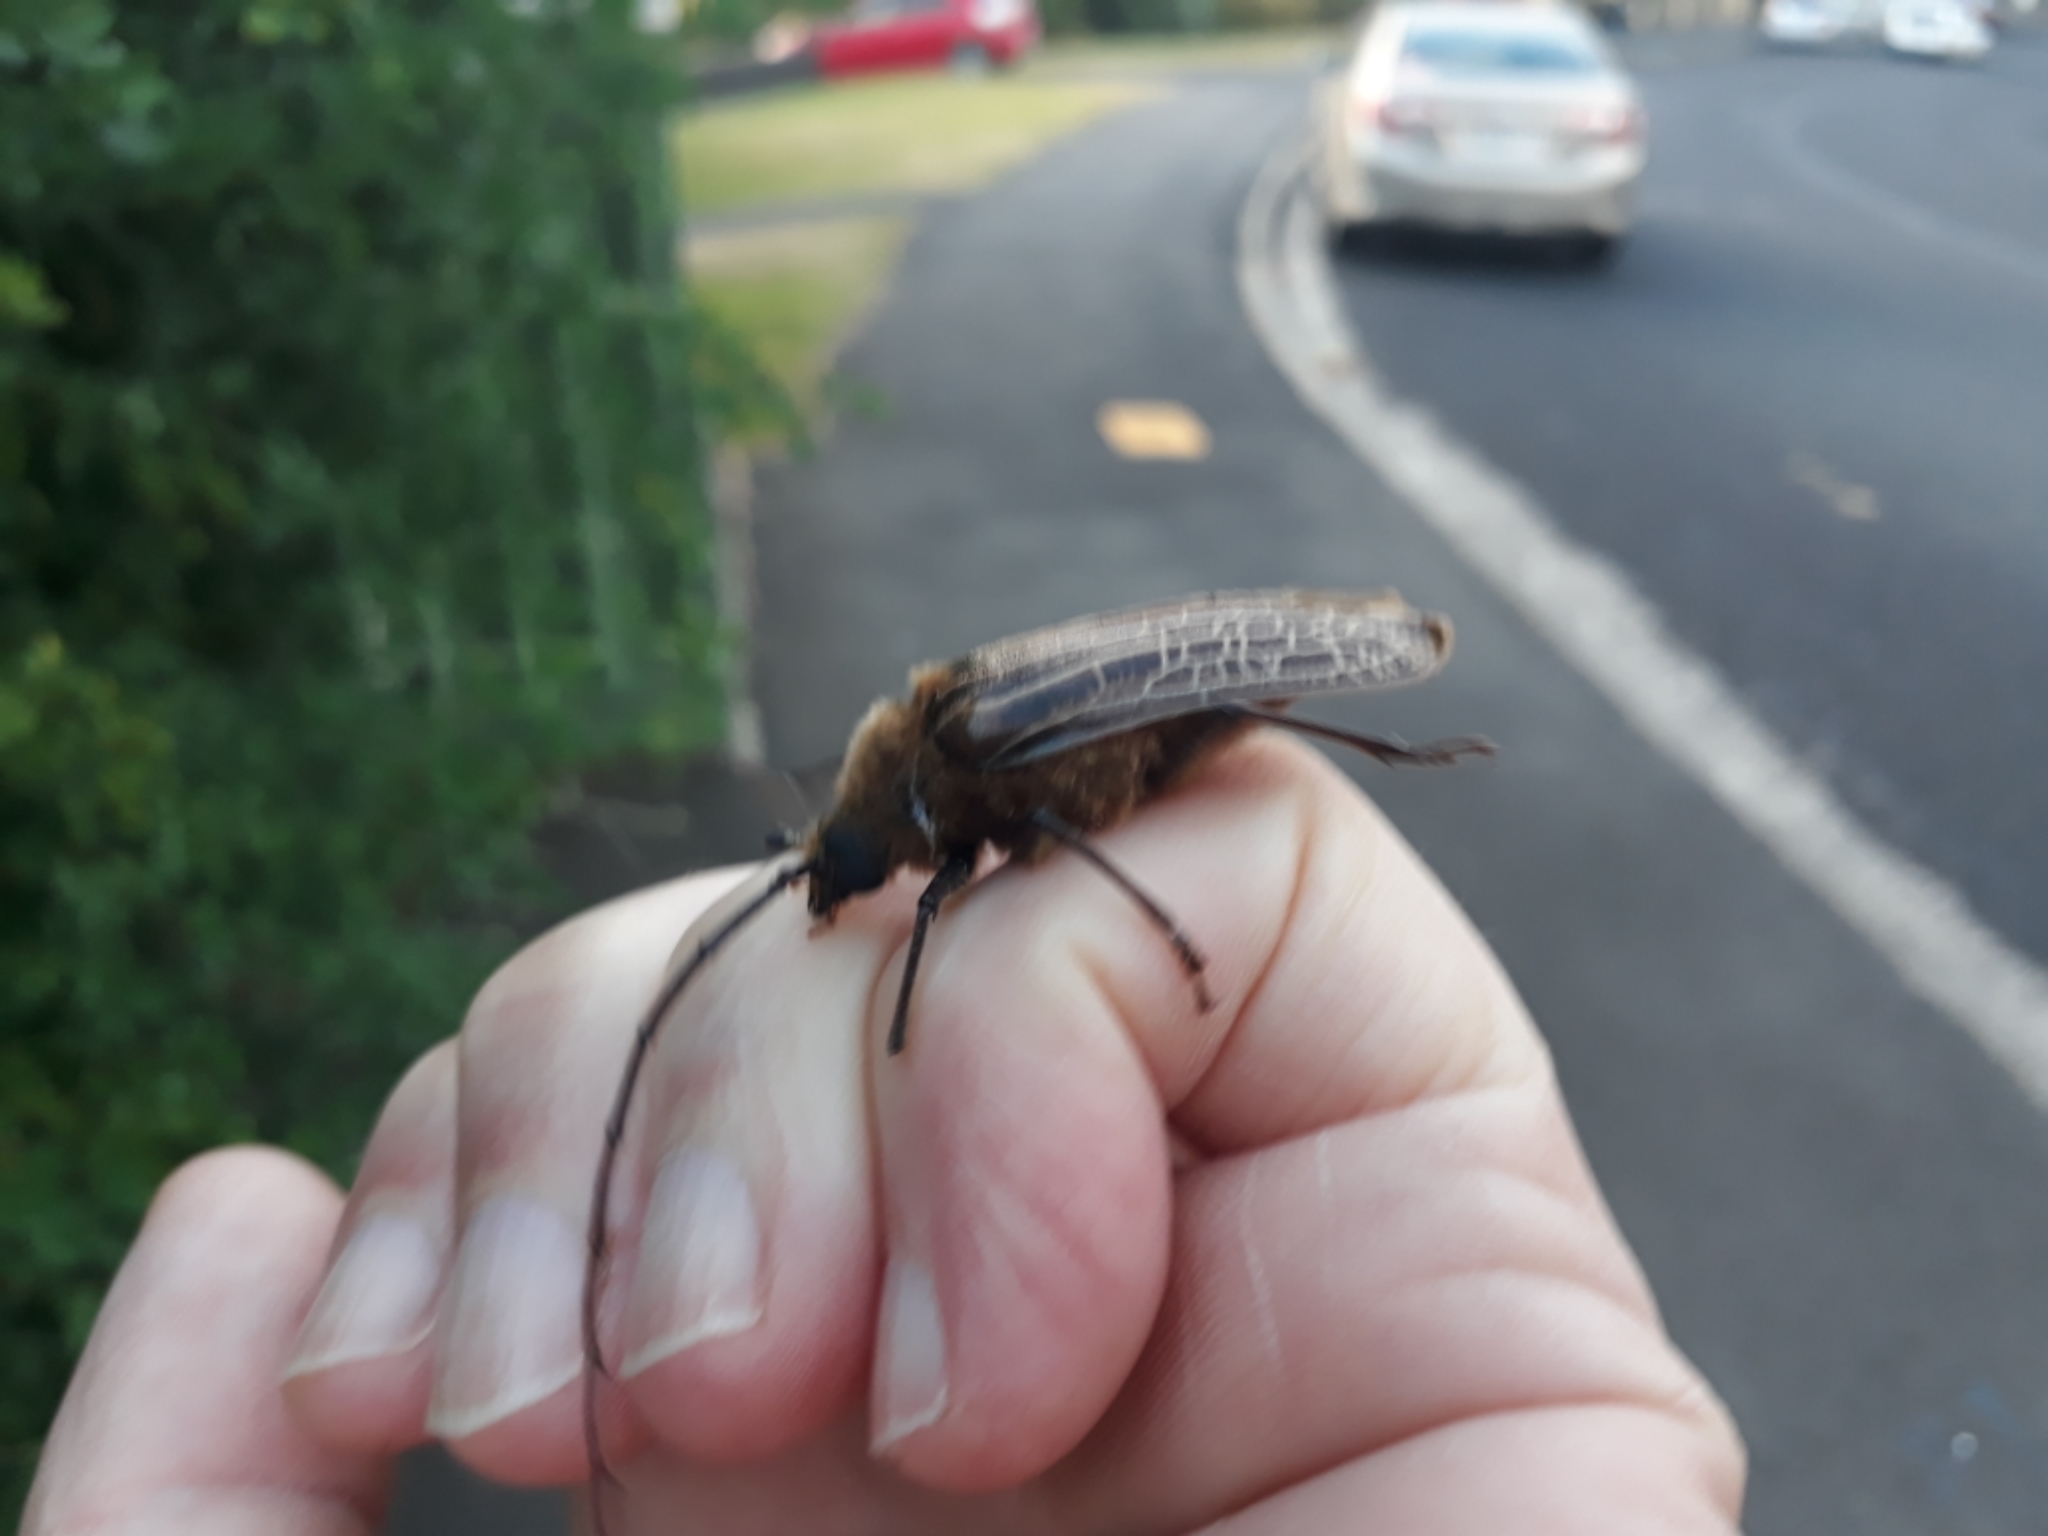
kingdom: Animalia
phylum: Arthropoda
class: Insecta
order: Coleoptera
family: Cerambycidae
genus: Prionoplus
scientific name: Prionoplus reticularis
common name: Huhu beetle
